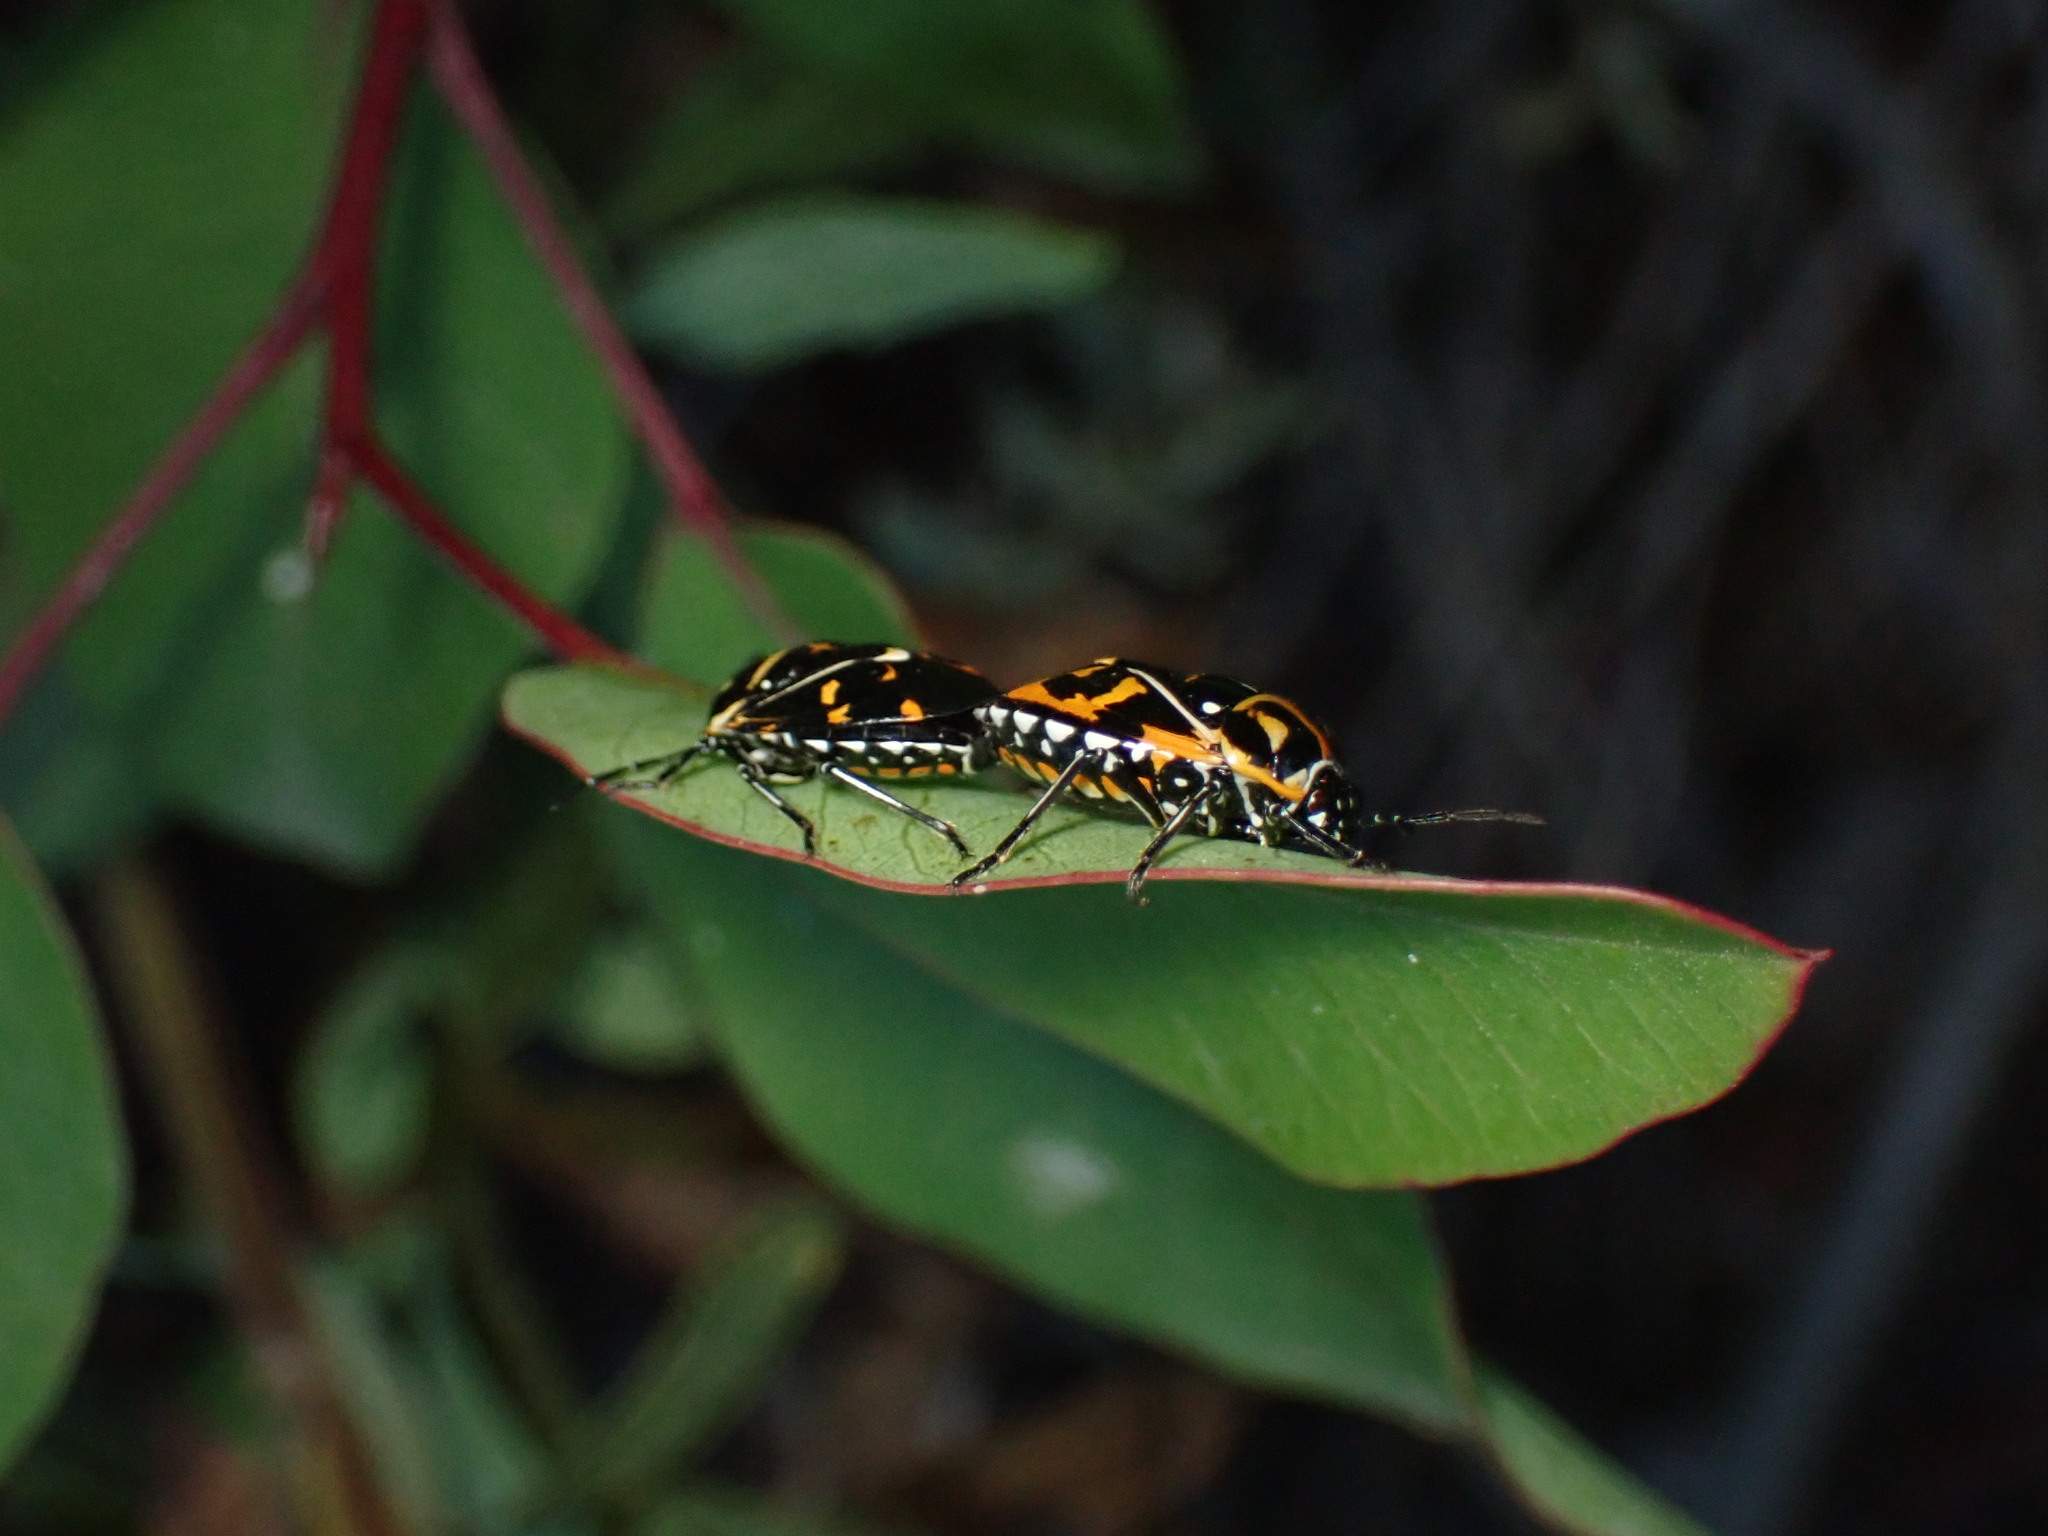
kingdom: Animalia
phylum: Arthropoda
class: Insecta
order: Hemiptera
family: Pentatomidae
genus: Murgantia
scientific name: Murgantia histrionica
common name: Harlequin bug
